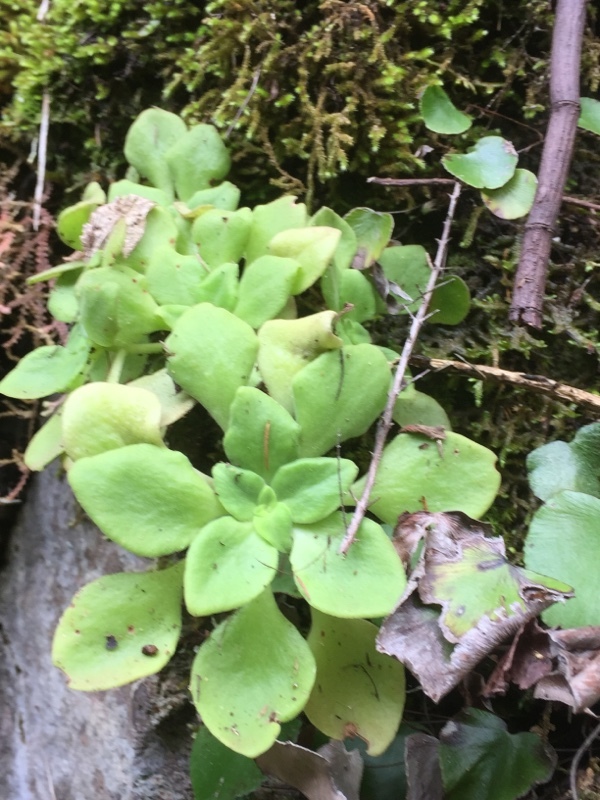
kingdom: Plantae
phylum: Tracheophyta
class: Magnoliopsida
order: Saxifragales
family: Crassulaceae
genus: Aichryson
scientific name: Aichryson laxum
